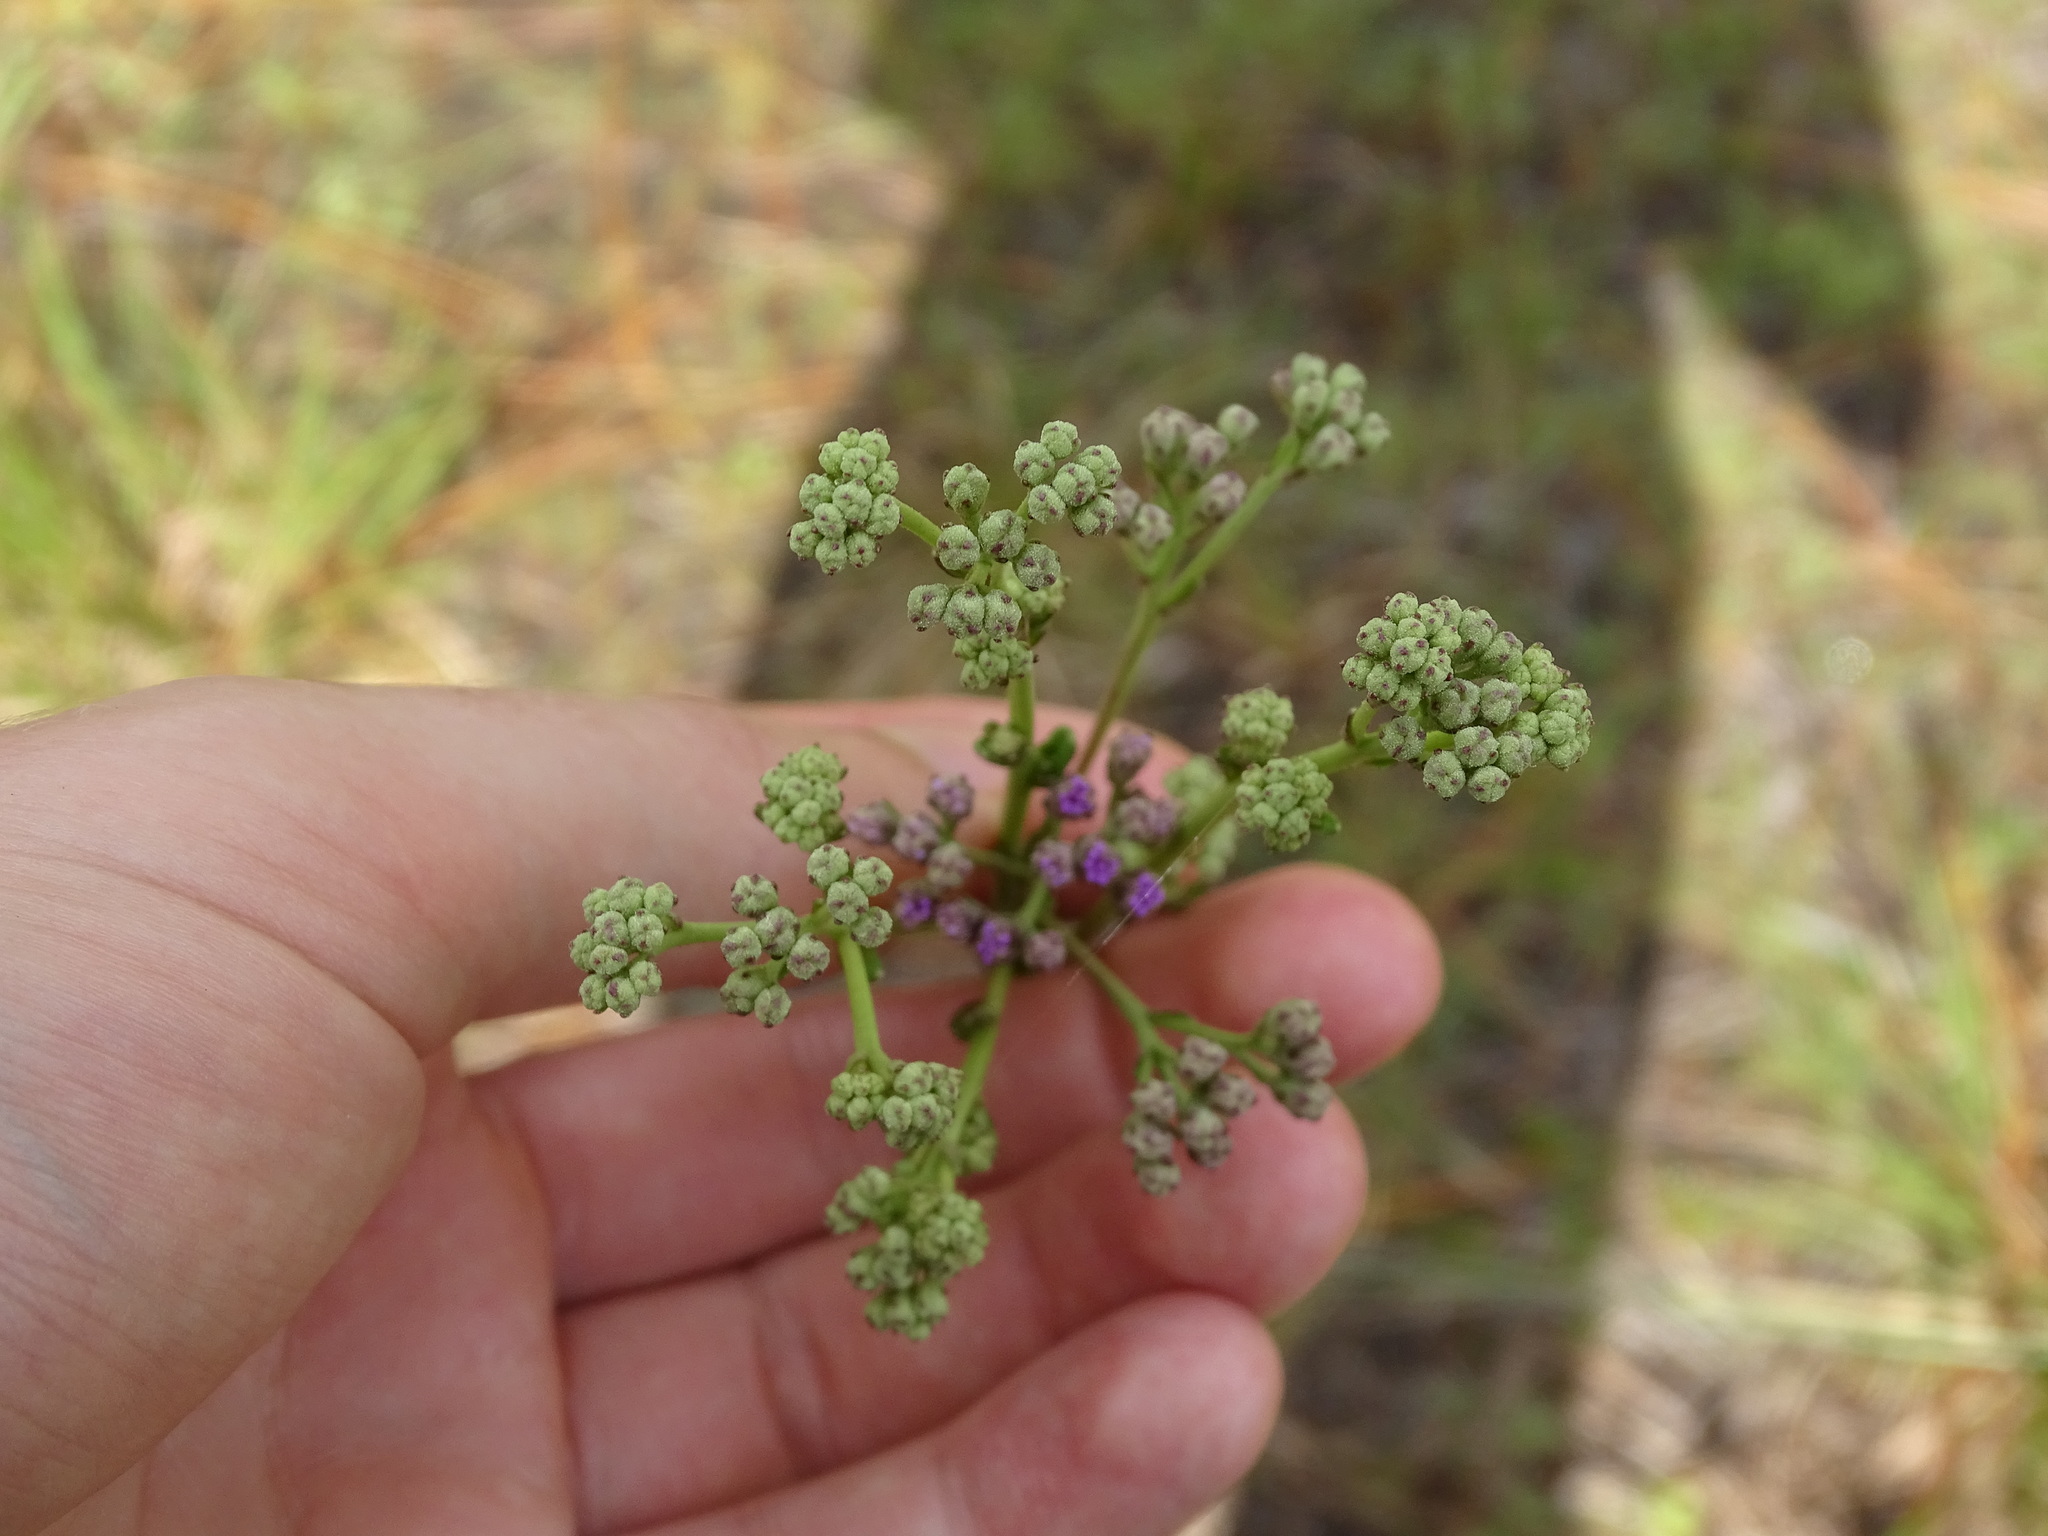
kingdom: Plantae
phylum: Tracheophyta
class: Magnoliopsida
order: Asterales
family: Asteraceae
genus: Carphephorus
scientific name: Carphephorus odoratissimus
